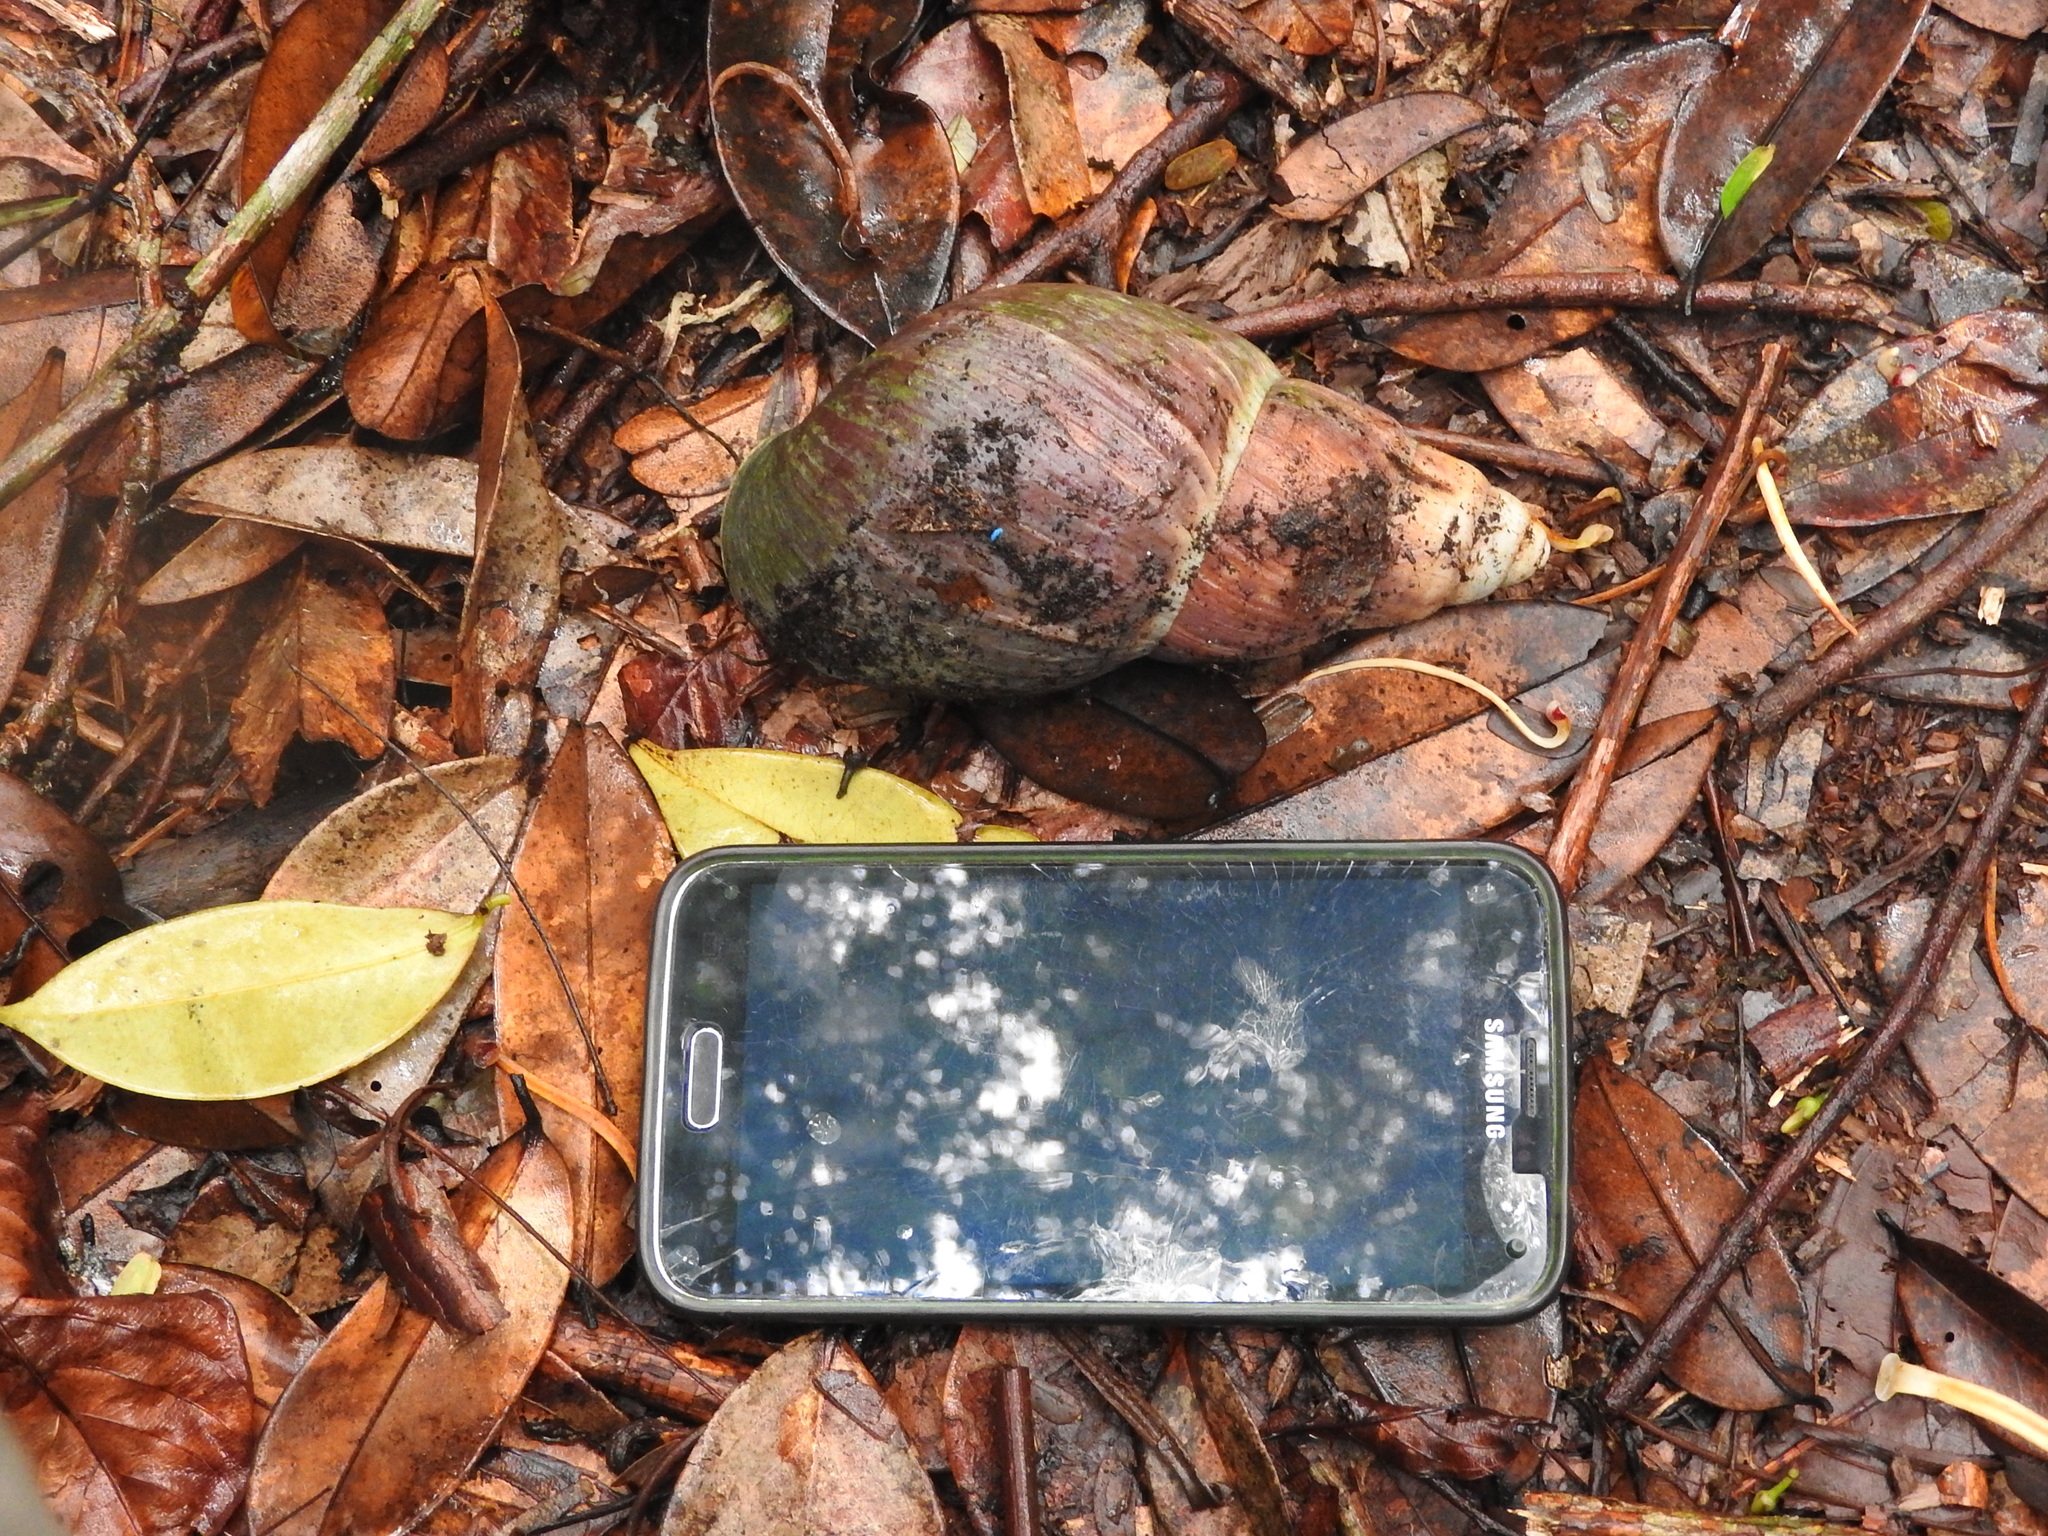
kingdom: Animalia
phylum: Mollusca
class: Gastropoda
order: Stylommatophora
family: Achatinidae
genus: Archachatina
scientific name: Archachatina bicarinata
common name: Obô giant snail
